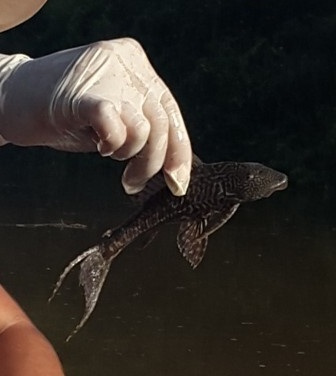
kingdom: Animalia
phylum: Chordata
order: Siluriformes
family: Loricariidae
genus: Pterygoplichthys
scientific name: Pterygoplichthys
